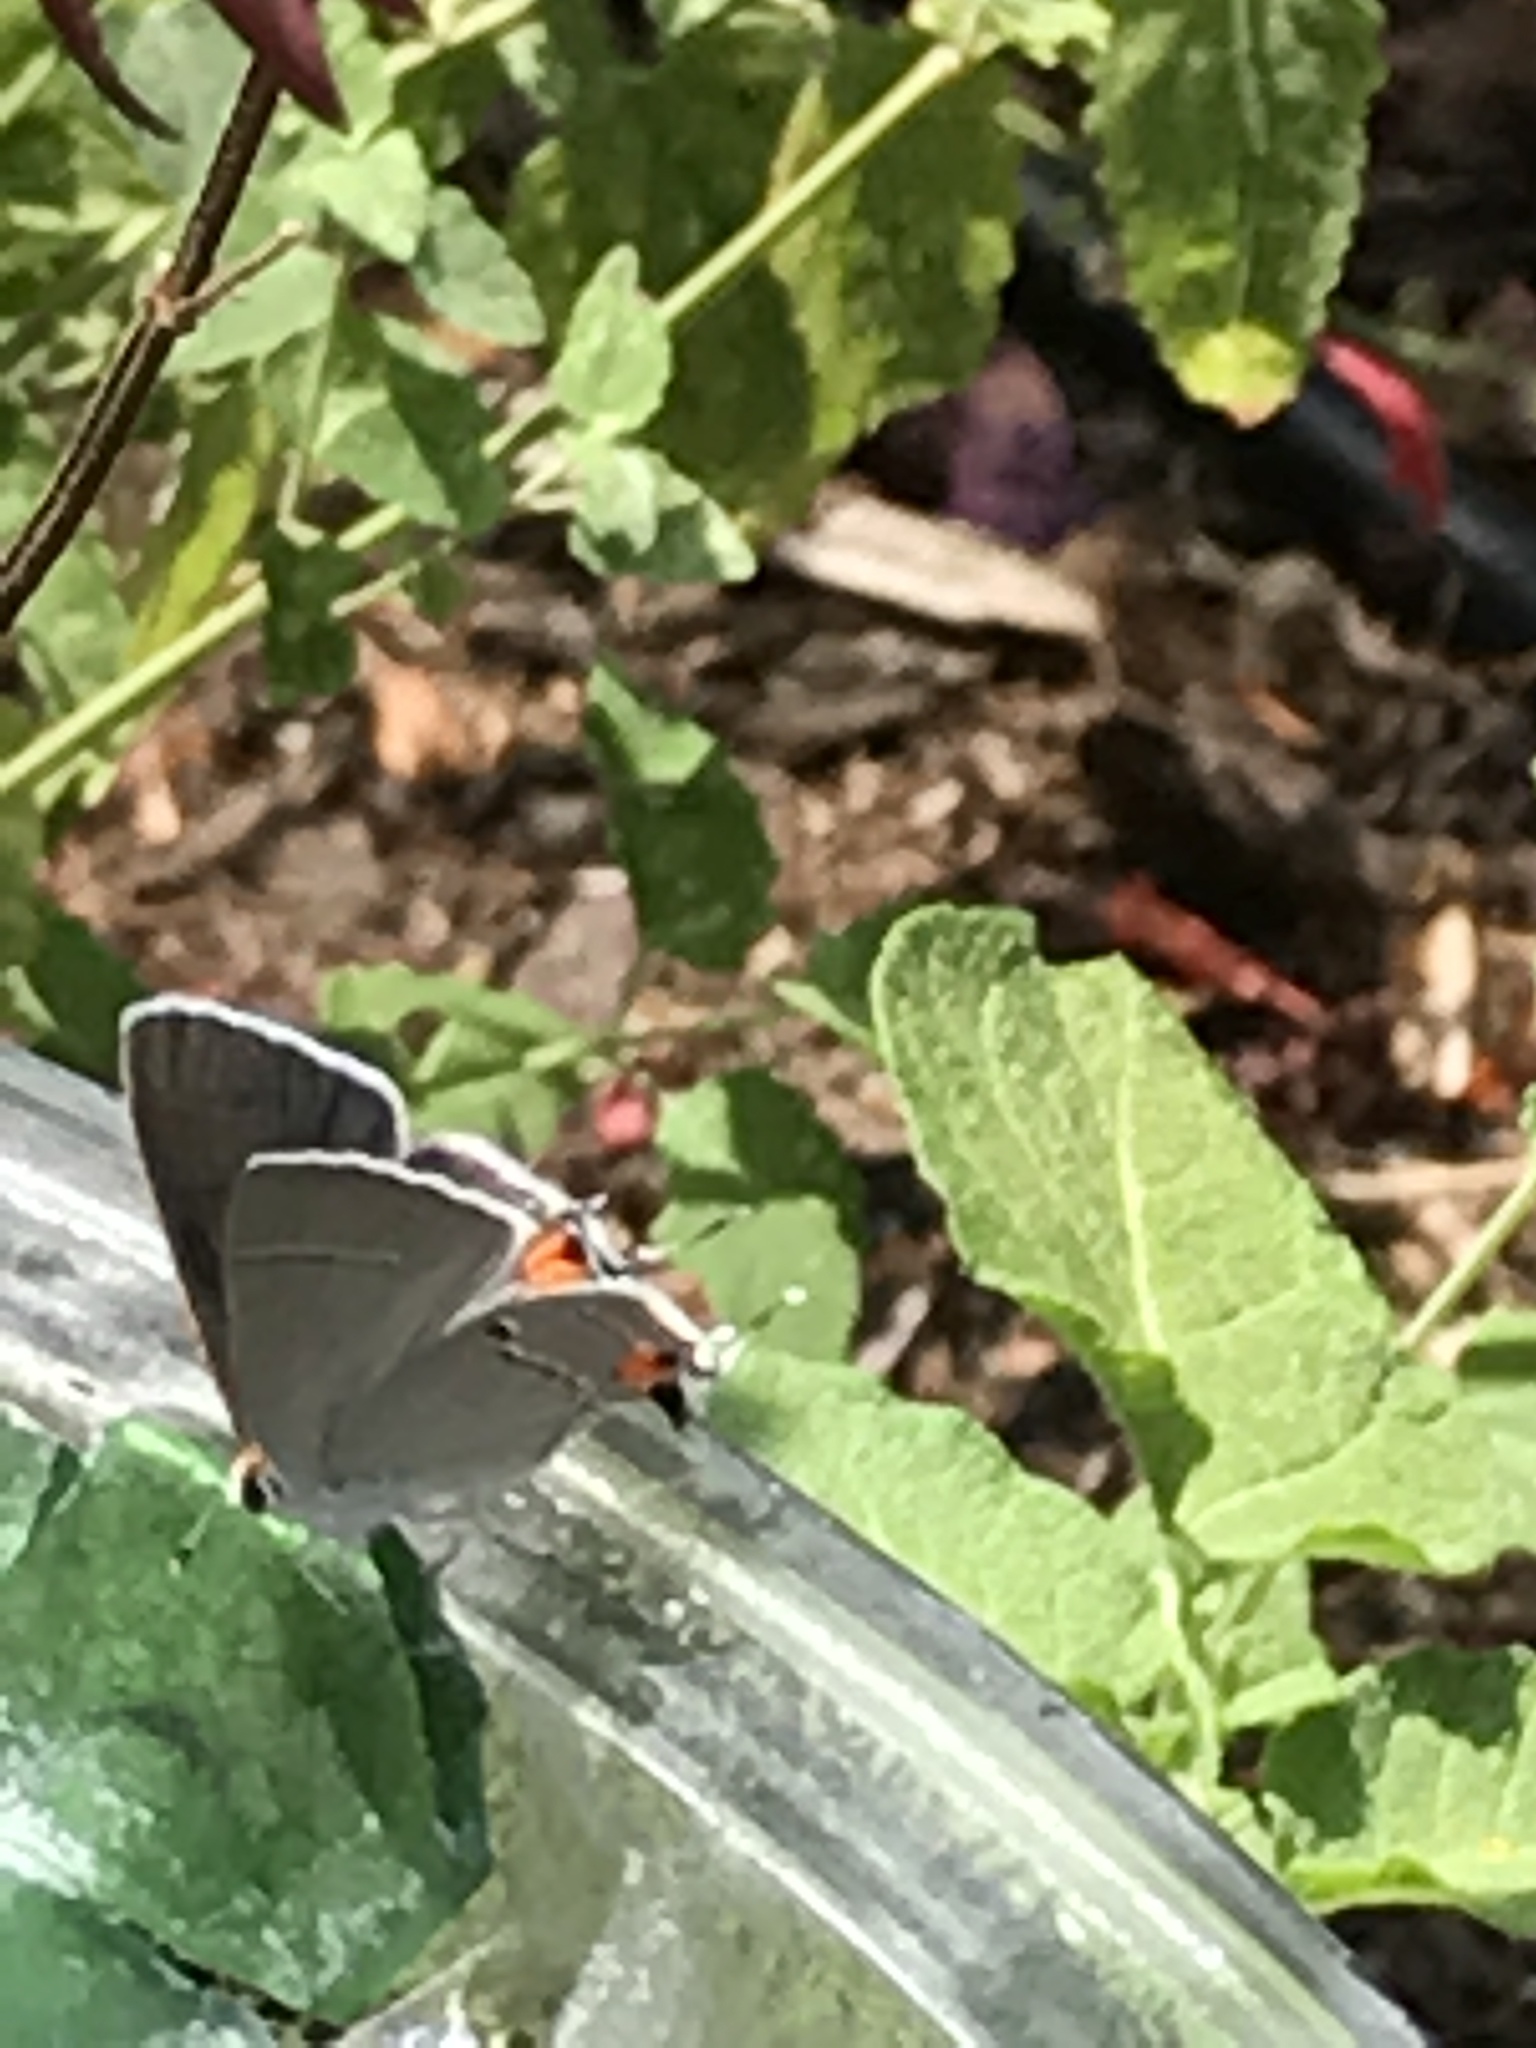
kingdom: Animalia
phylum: Arthropoda
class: Insecta
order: Lepidoptera
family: Lycaenidae
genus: Strymon
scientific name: Strymon melinus
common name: Gray hairstreak
